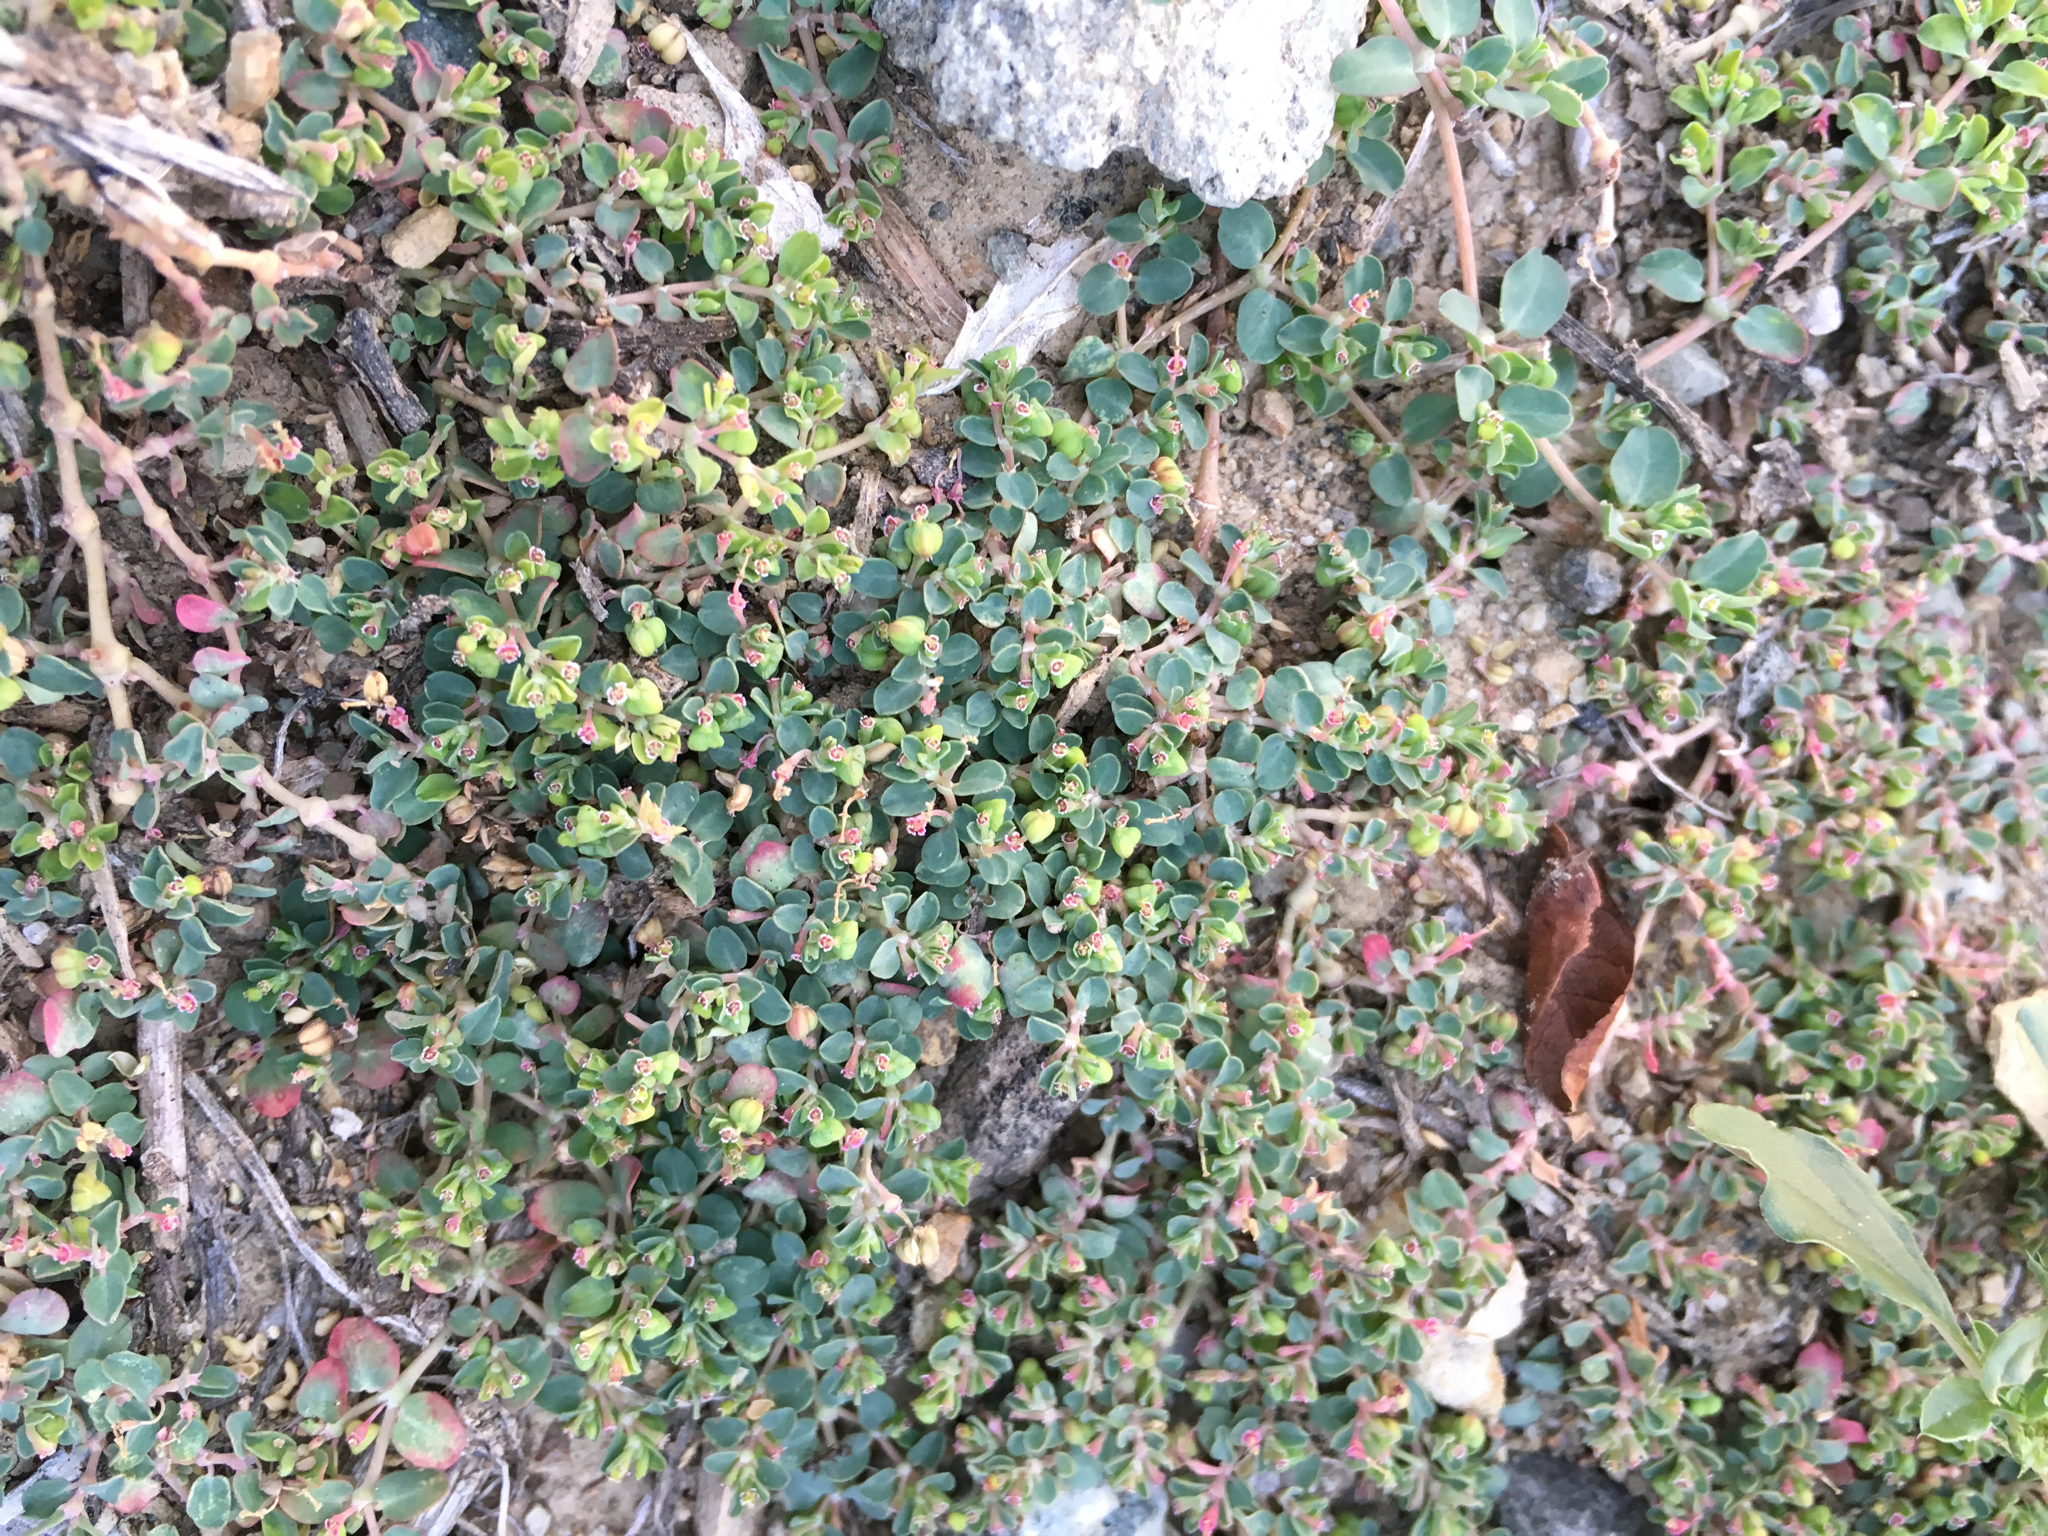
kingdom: Plantae
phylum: Tracheophyta
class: Magnoliopsida
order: Malpighiales
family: Euphorbiaceae
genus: Euphorbia
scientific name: Euphorbia serpens
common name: Matted sandmat
